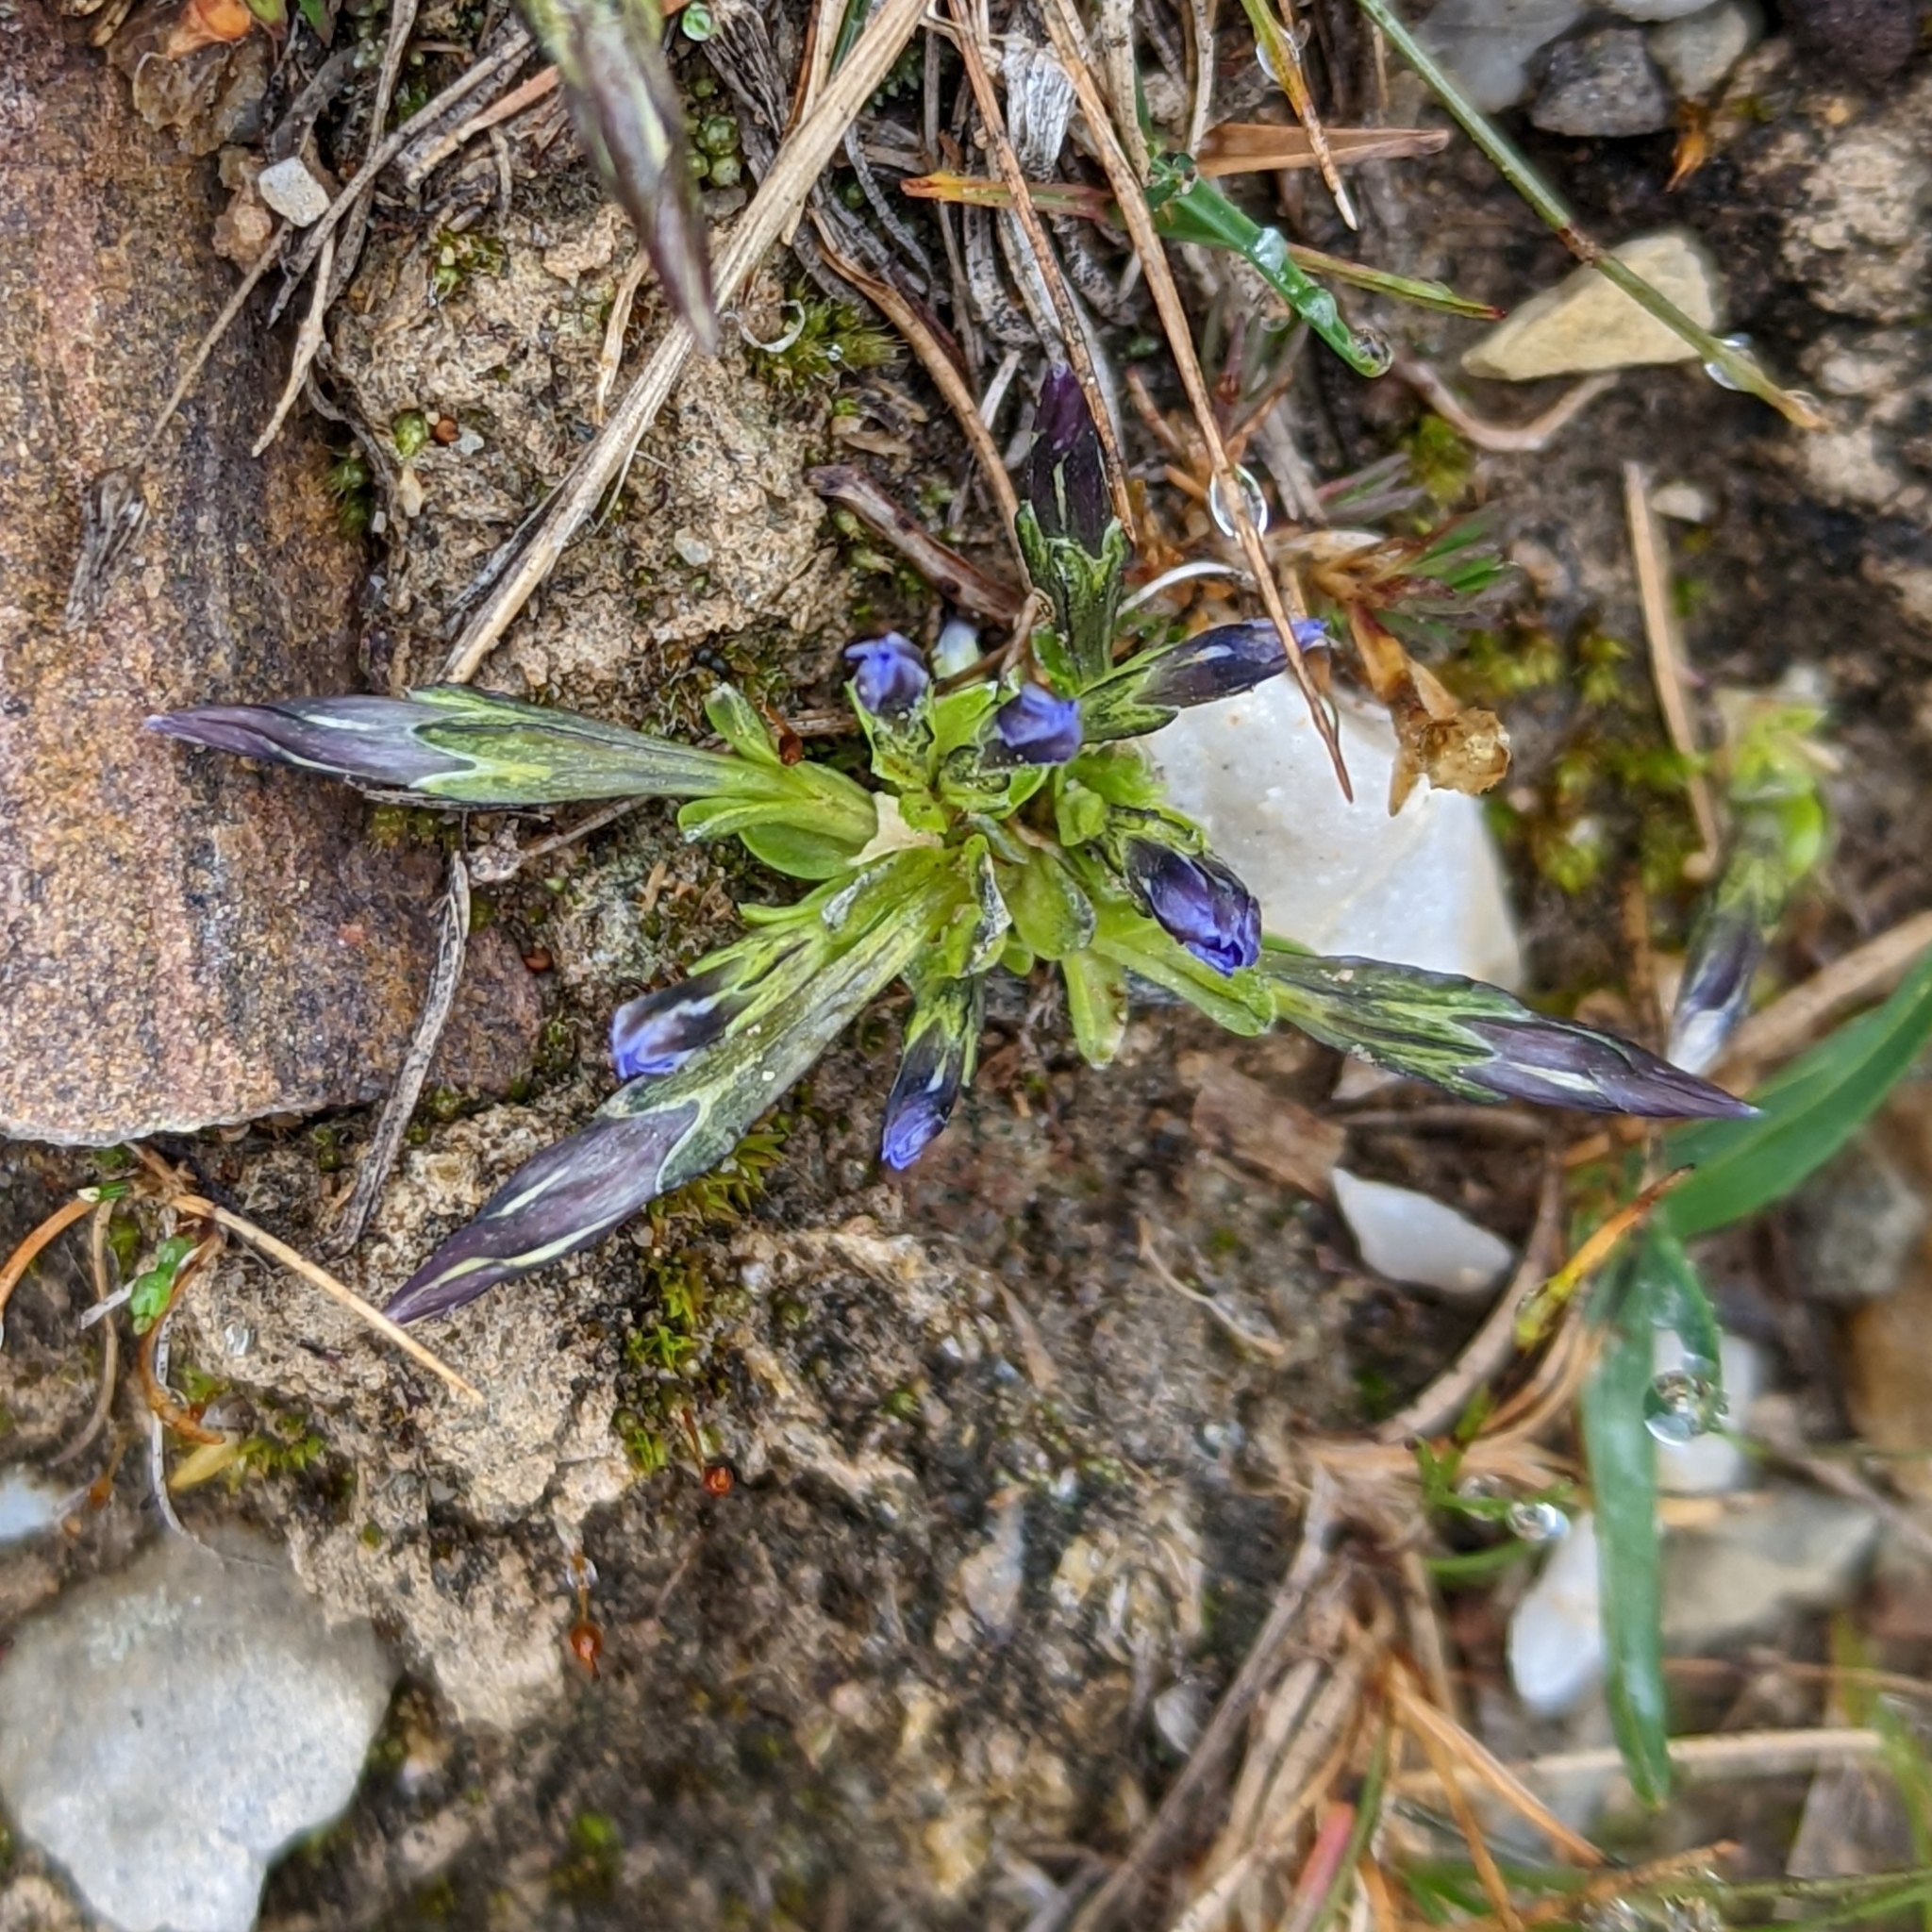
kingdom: Plantae
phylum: Tracheophyta
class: Magnoliopsida
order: Gentianales
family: Gentianaceae
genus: Gentiana
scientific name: Gentiana prostrata
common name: Moss gentian
